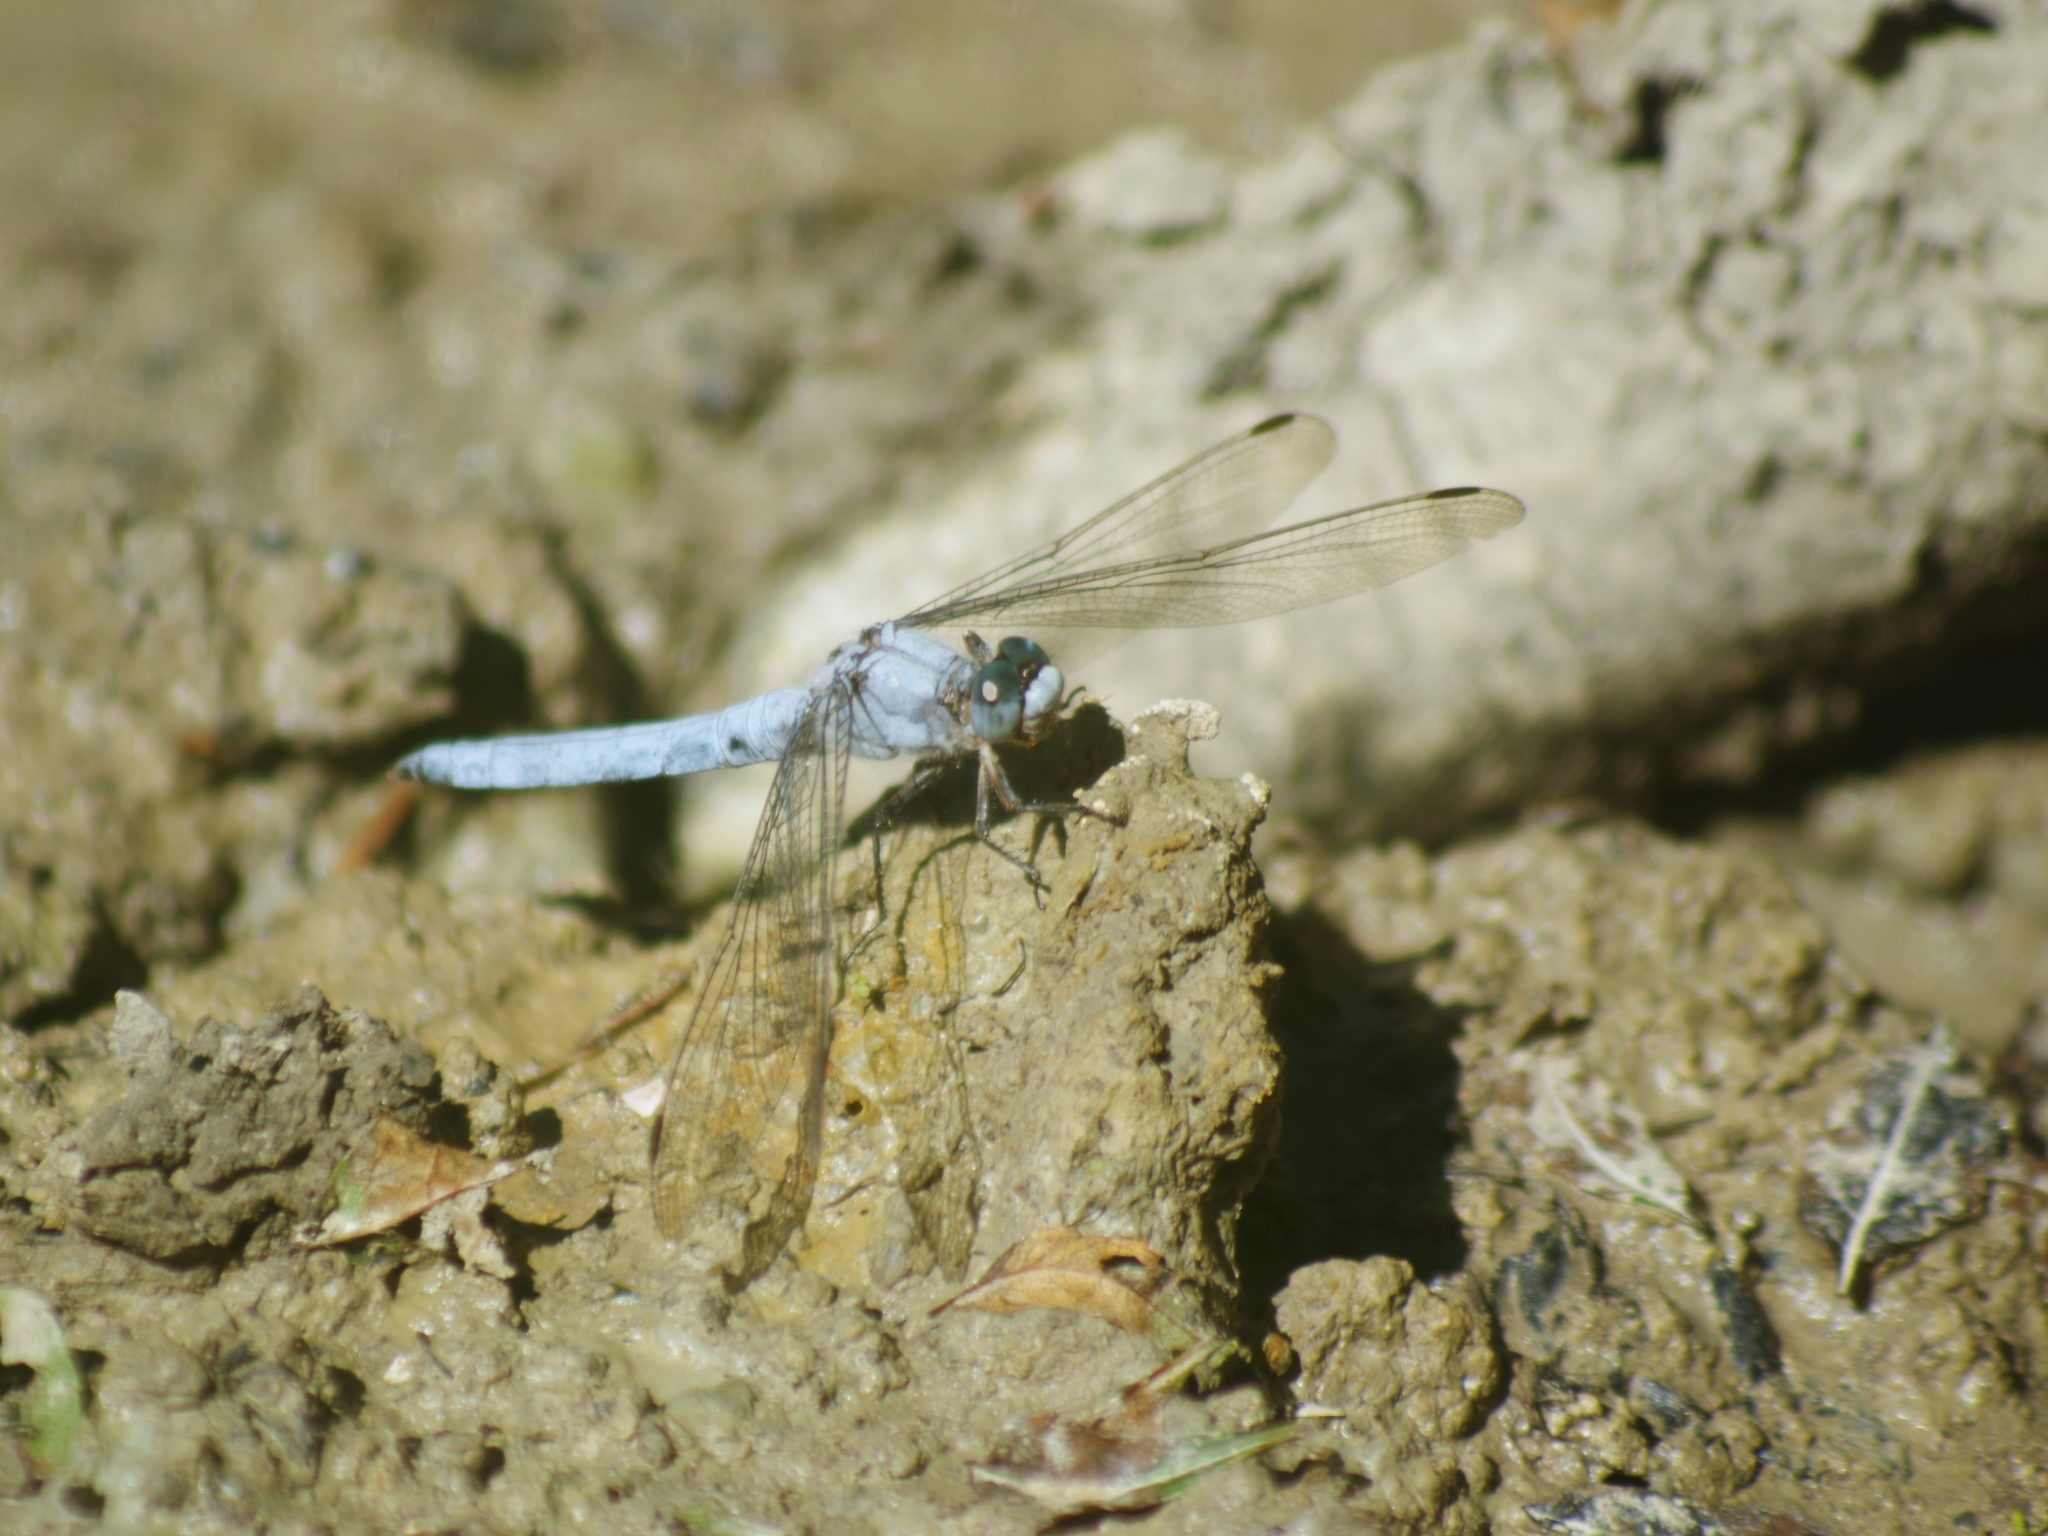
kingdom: Animalia
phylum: Arthropoda
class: Insecta
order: Odonata
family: Libellulidae
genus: Orthetrum
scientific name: Orthetrum brunneum
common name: Southern skimmer
